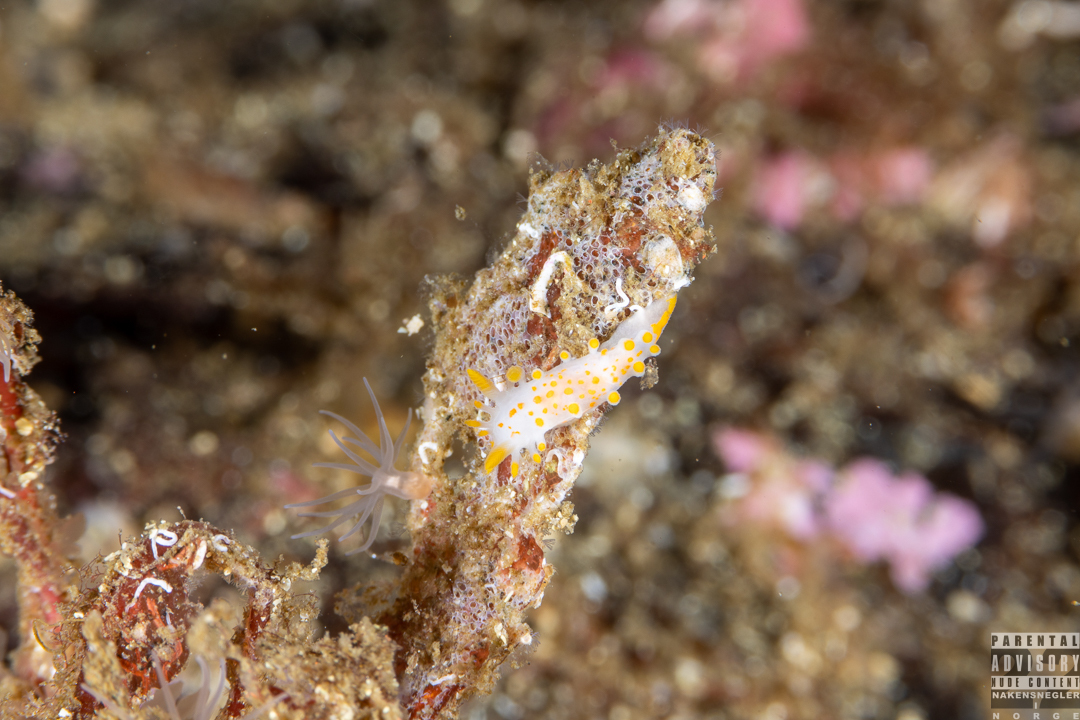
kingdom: Animalia
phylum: Mollusca
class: Gastropoda
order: Nudibranchia
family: Polyceridae
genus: Limacia
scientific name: Limacia clavigera
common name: Orange-clubbed sea slug
